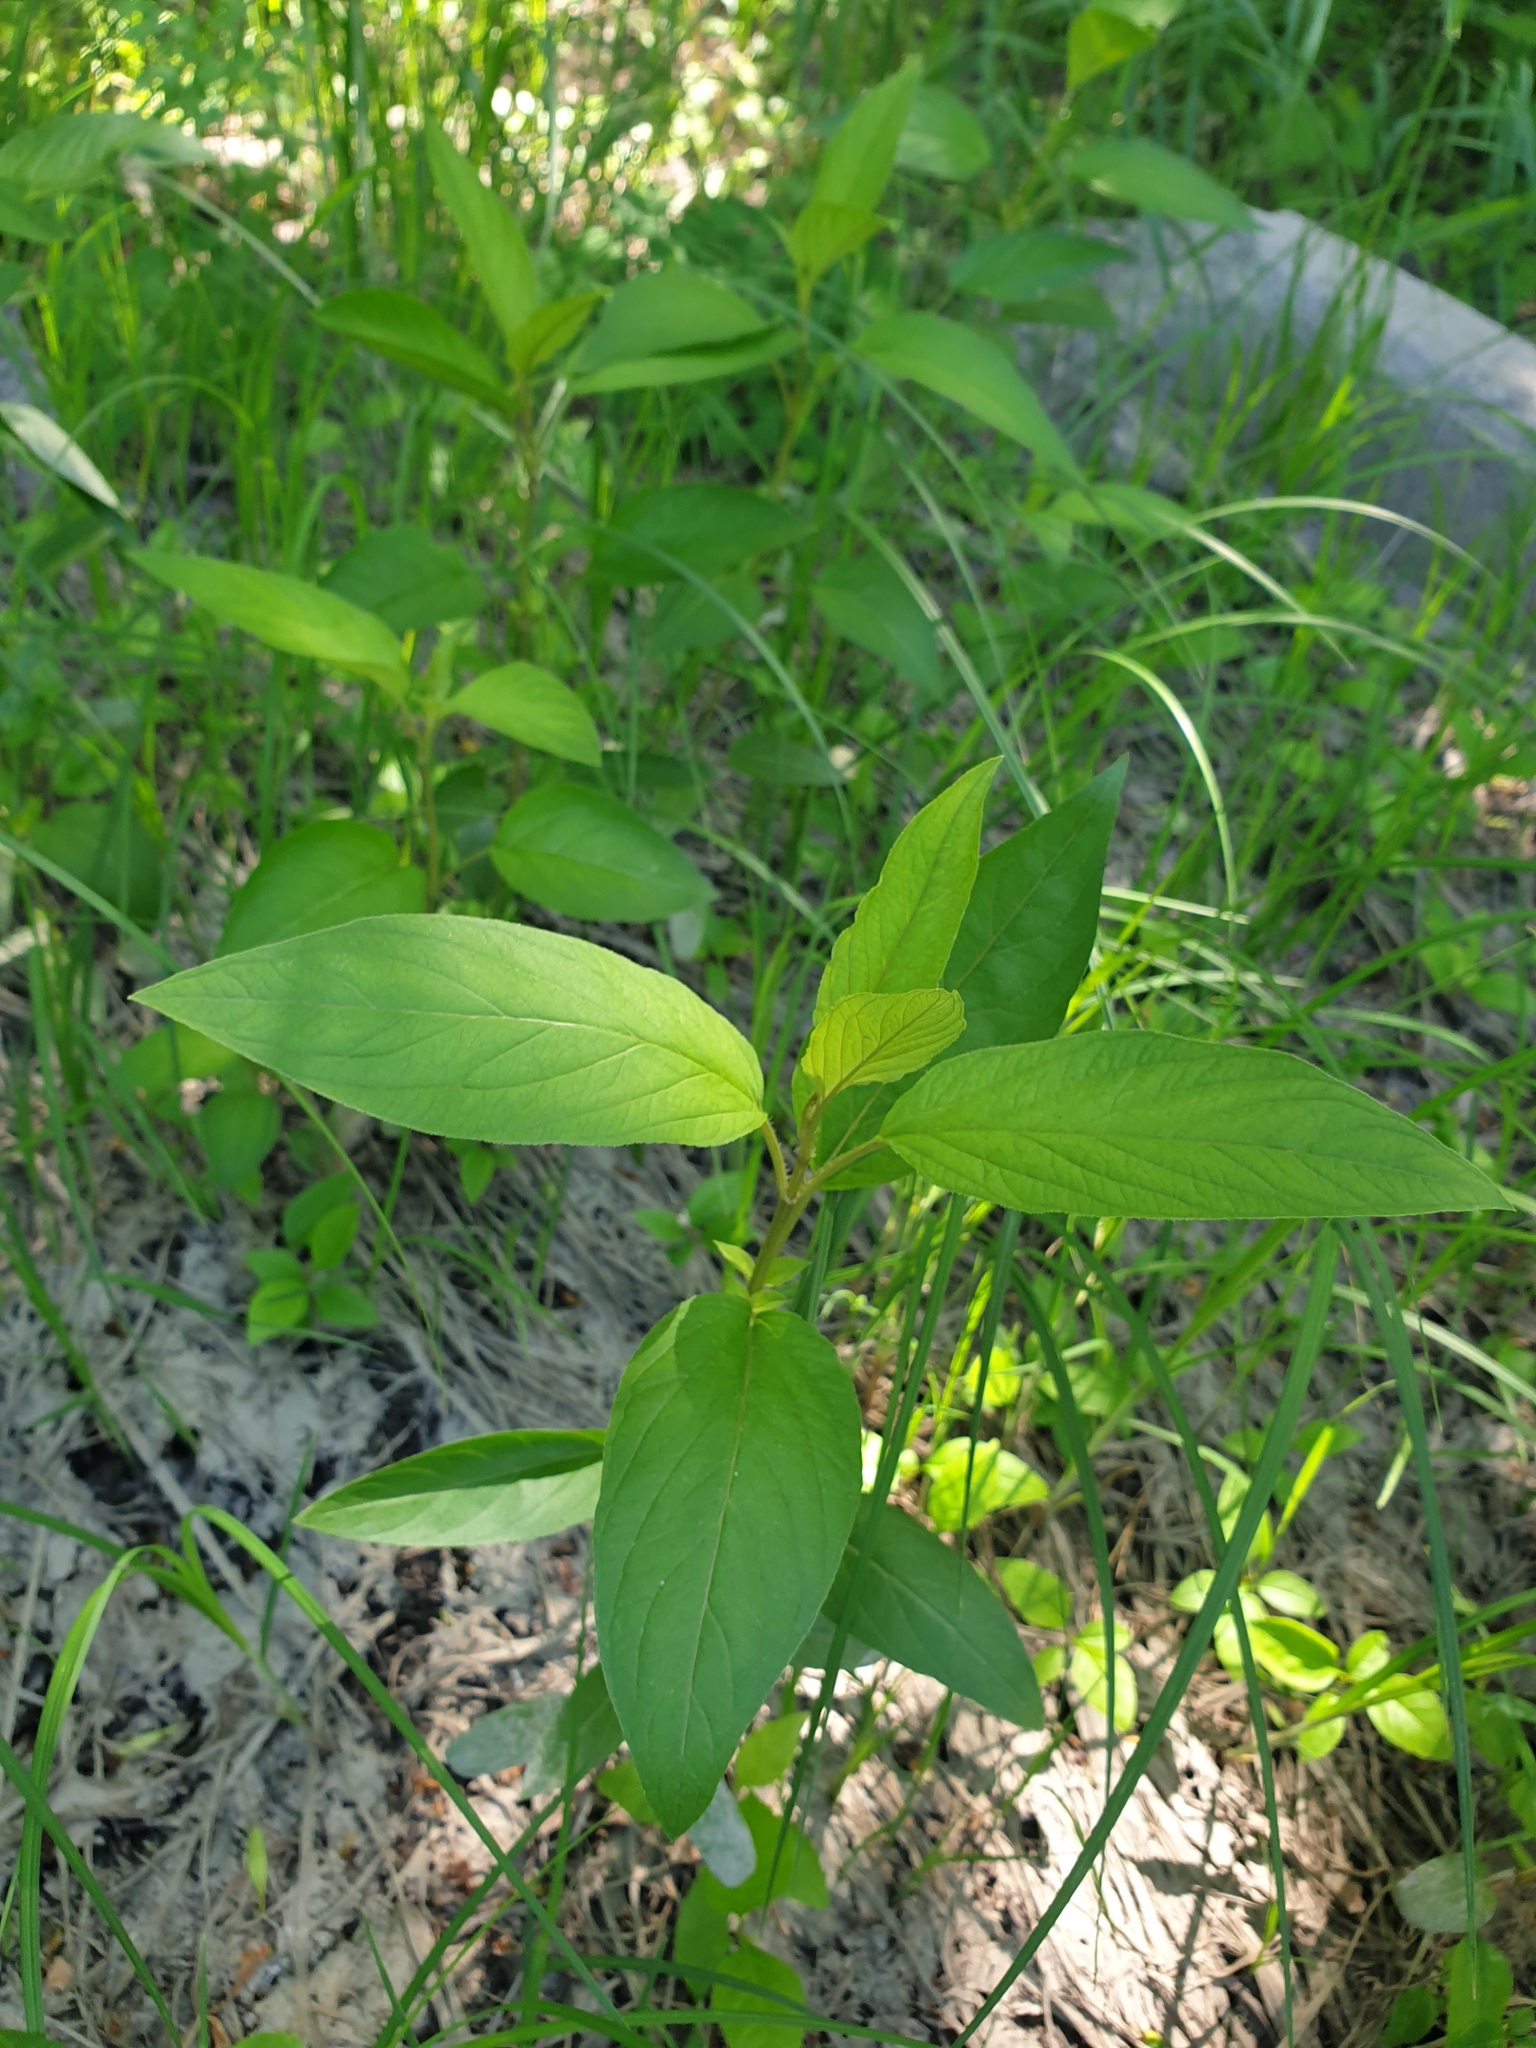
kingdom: Plantae
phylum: Tracheophyta
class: Magnoliopsida
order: Ericales
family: Primulaceae
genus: Lysimachia
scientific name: Lysimachia ciliata
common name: Fringed loosestrife
